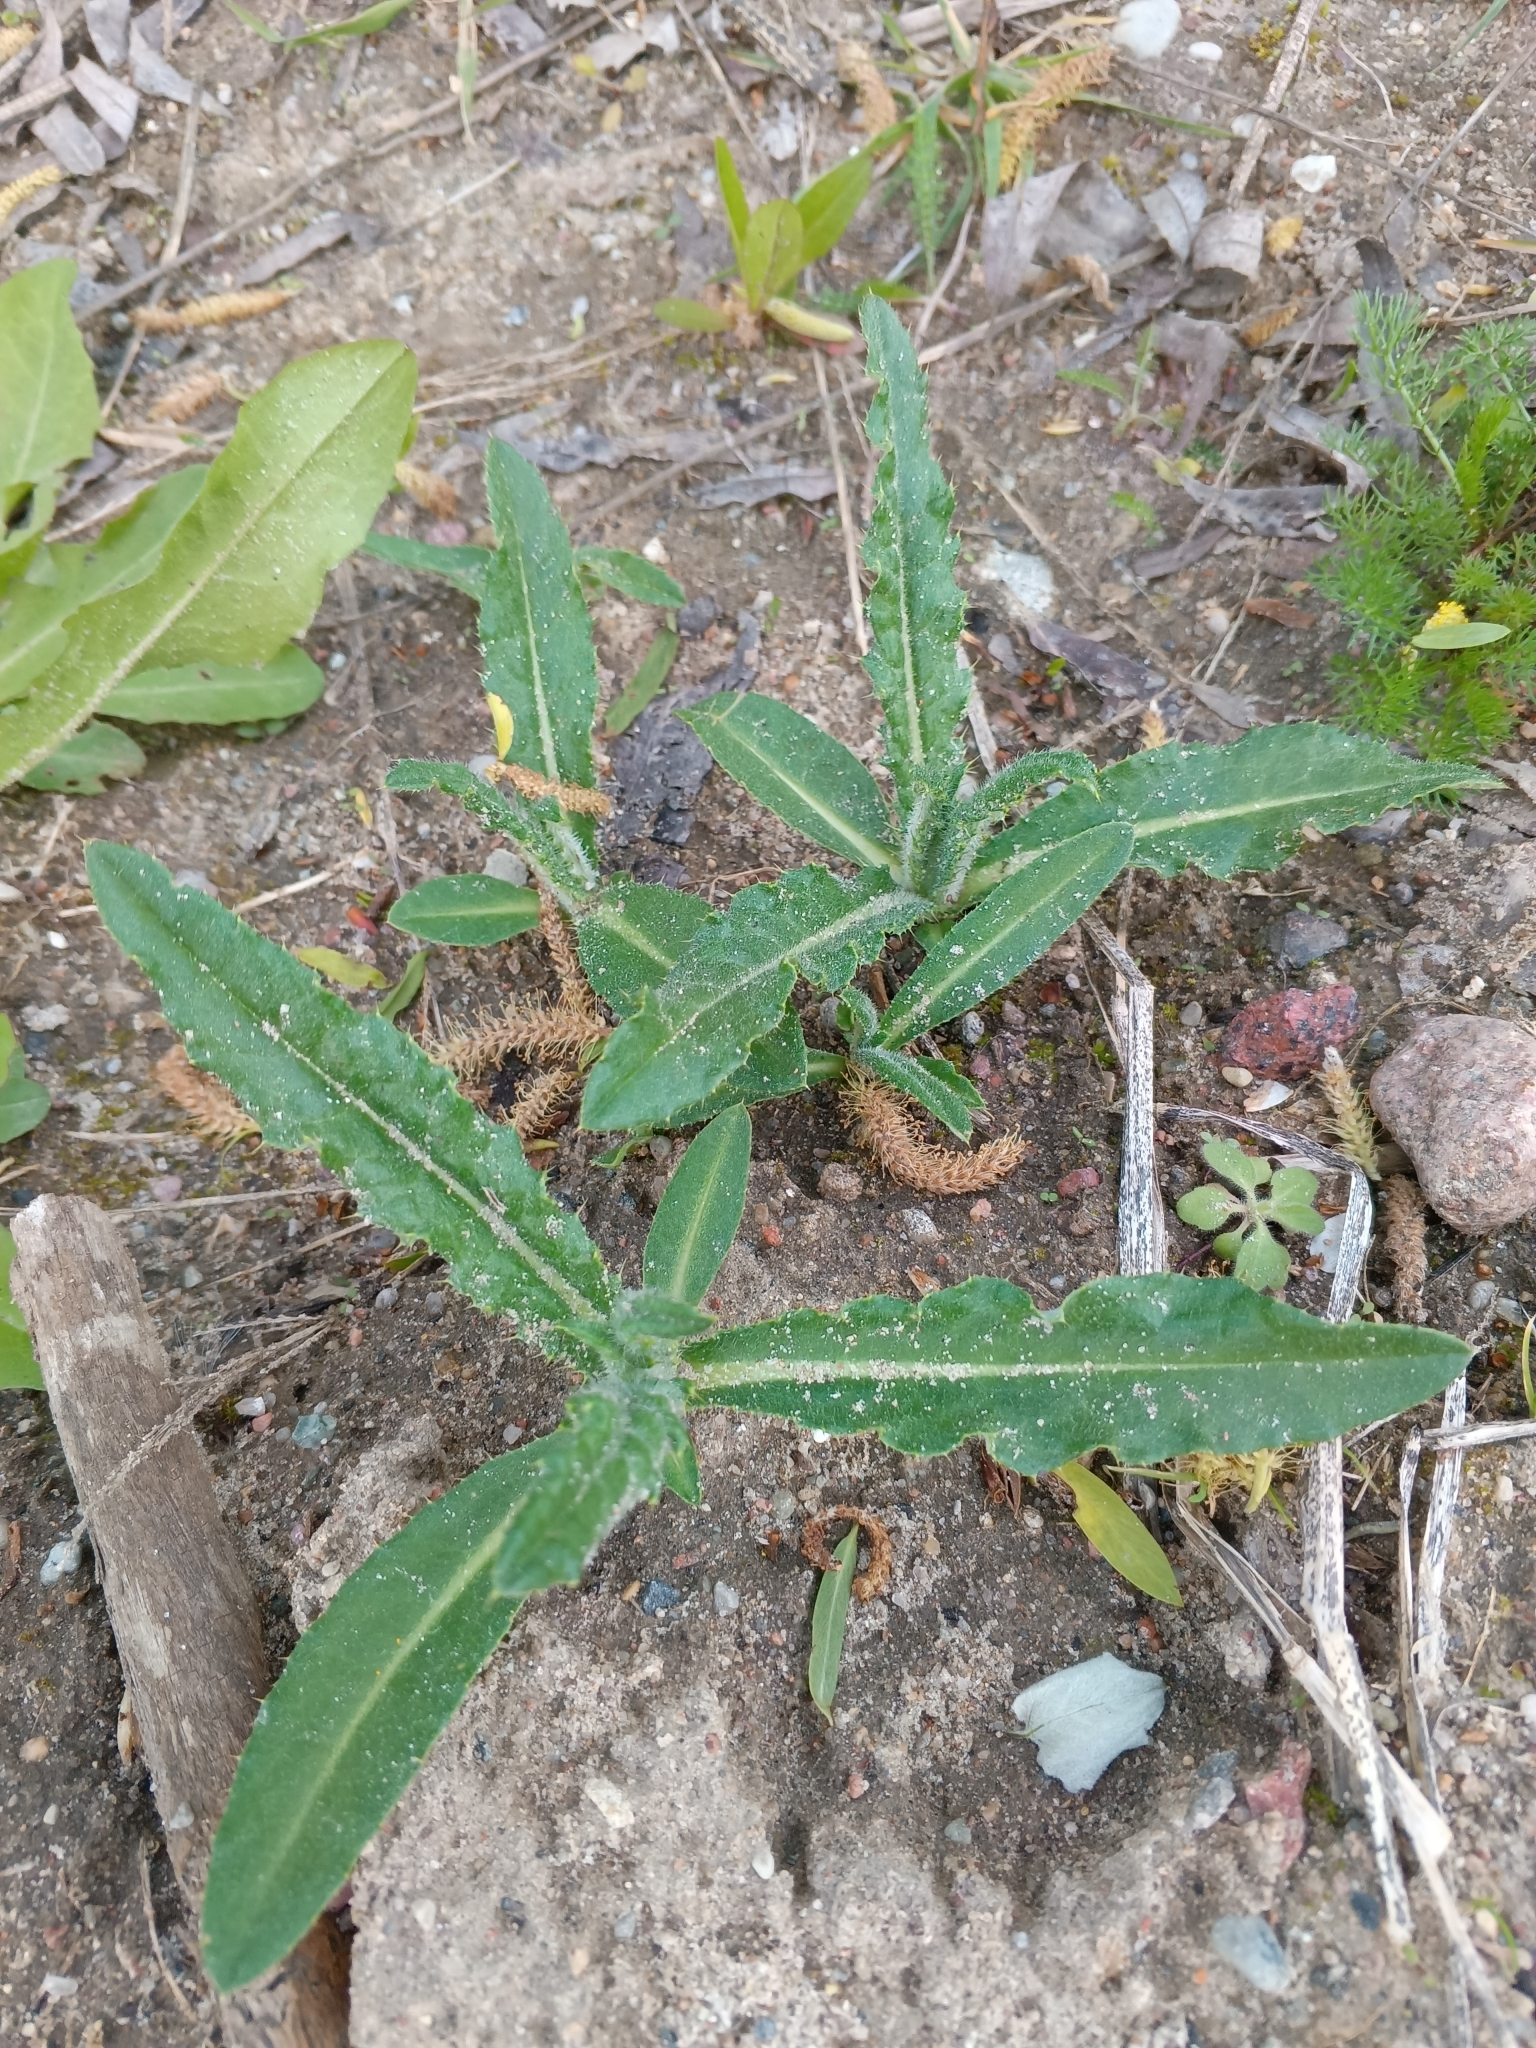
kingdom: Plantae
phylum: Tracheophyta
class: Magnoliopsida
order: Asterales
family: Asteraceae
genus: Cirsium
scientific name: Cirsium arvense
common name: Creeping thistle
